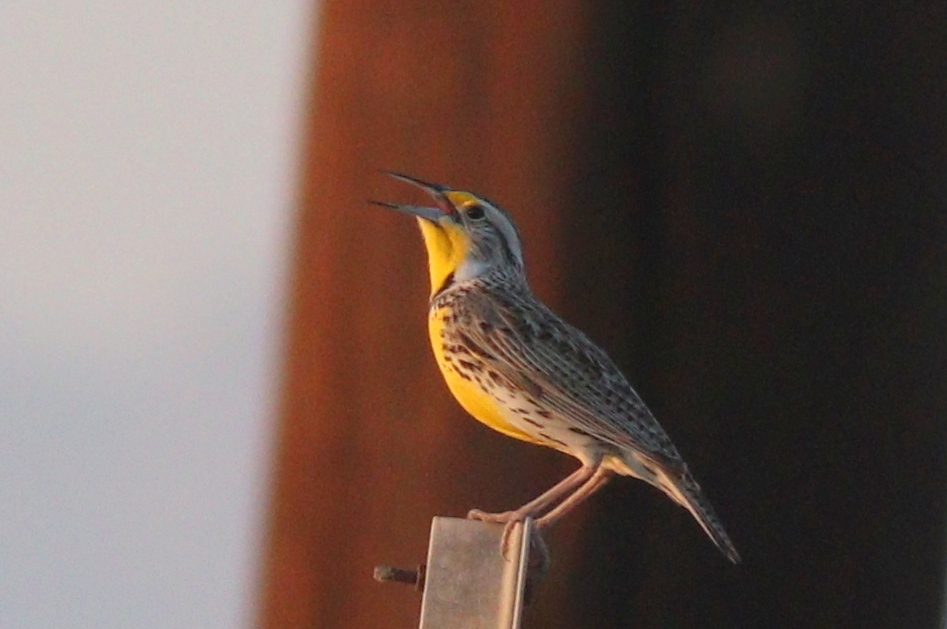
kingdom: Animalia
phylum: Chordata
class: Aves
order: Passeriformes
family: Icteridae
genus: Sturnella
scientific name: Sturnella neglecta
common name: Western meadowlark
